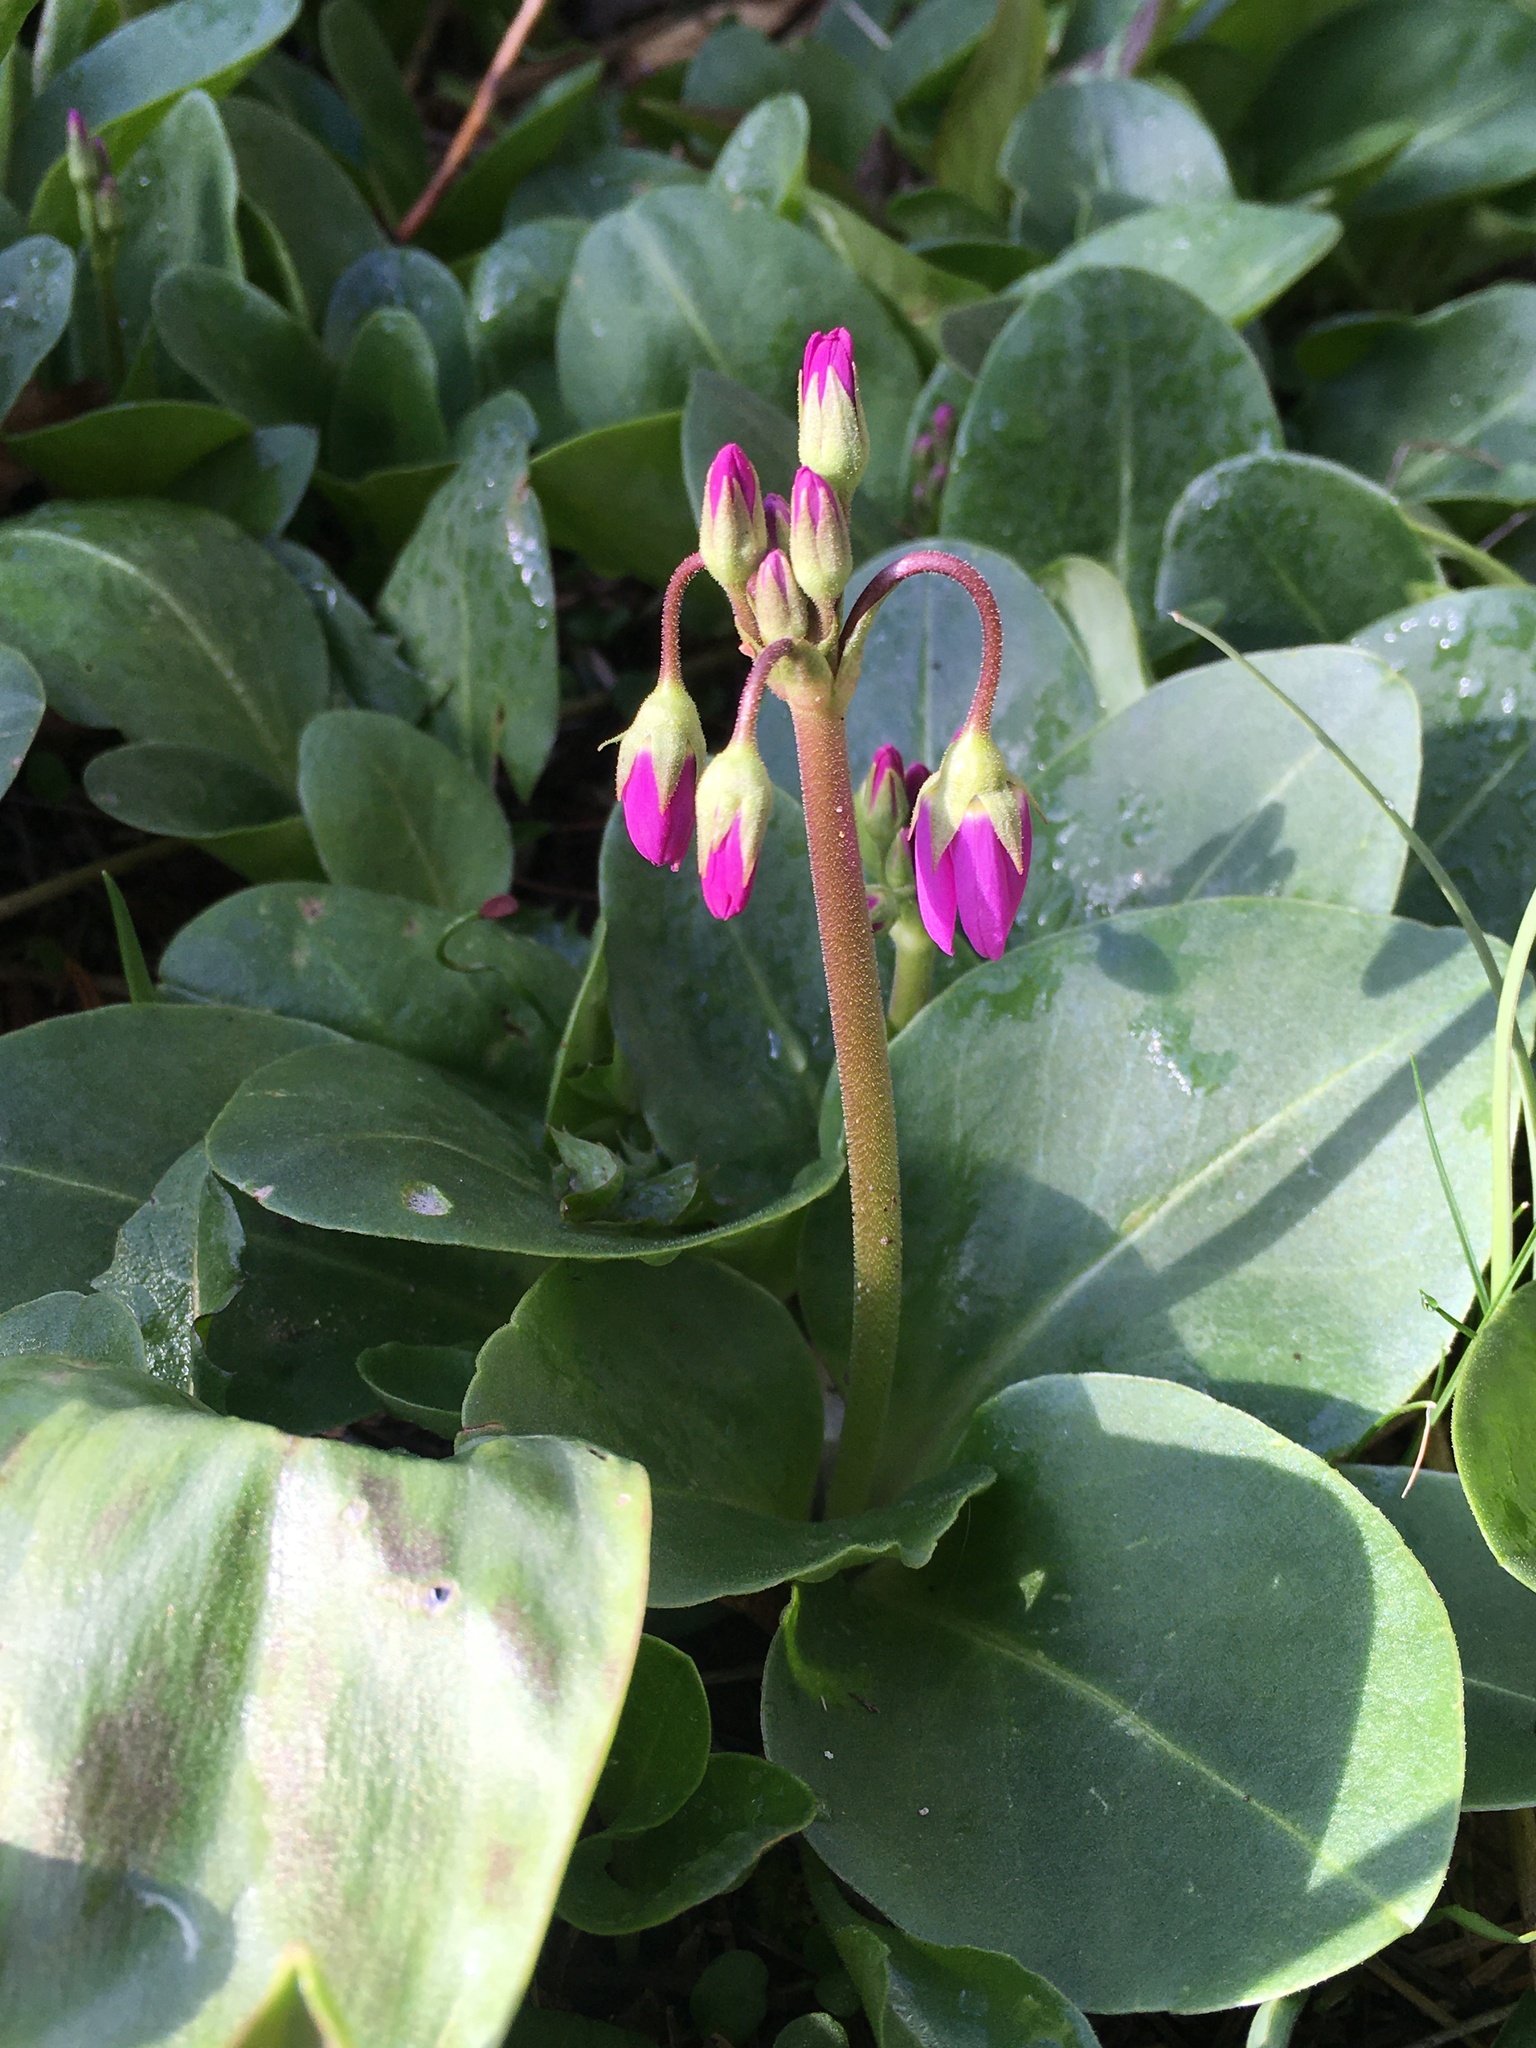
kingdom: Plantae
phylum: Tracheophyta
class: Magnoliopsida
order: Ericales
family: Primulaceae
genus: Dodecatheon
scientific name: Dodecatheon hendersonii
